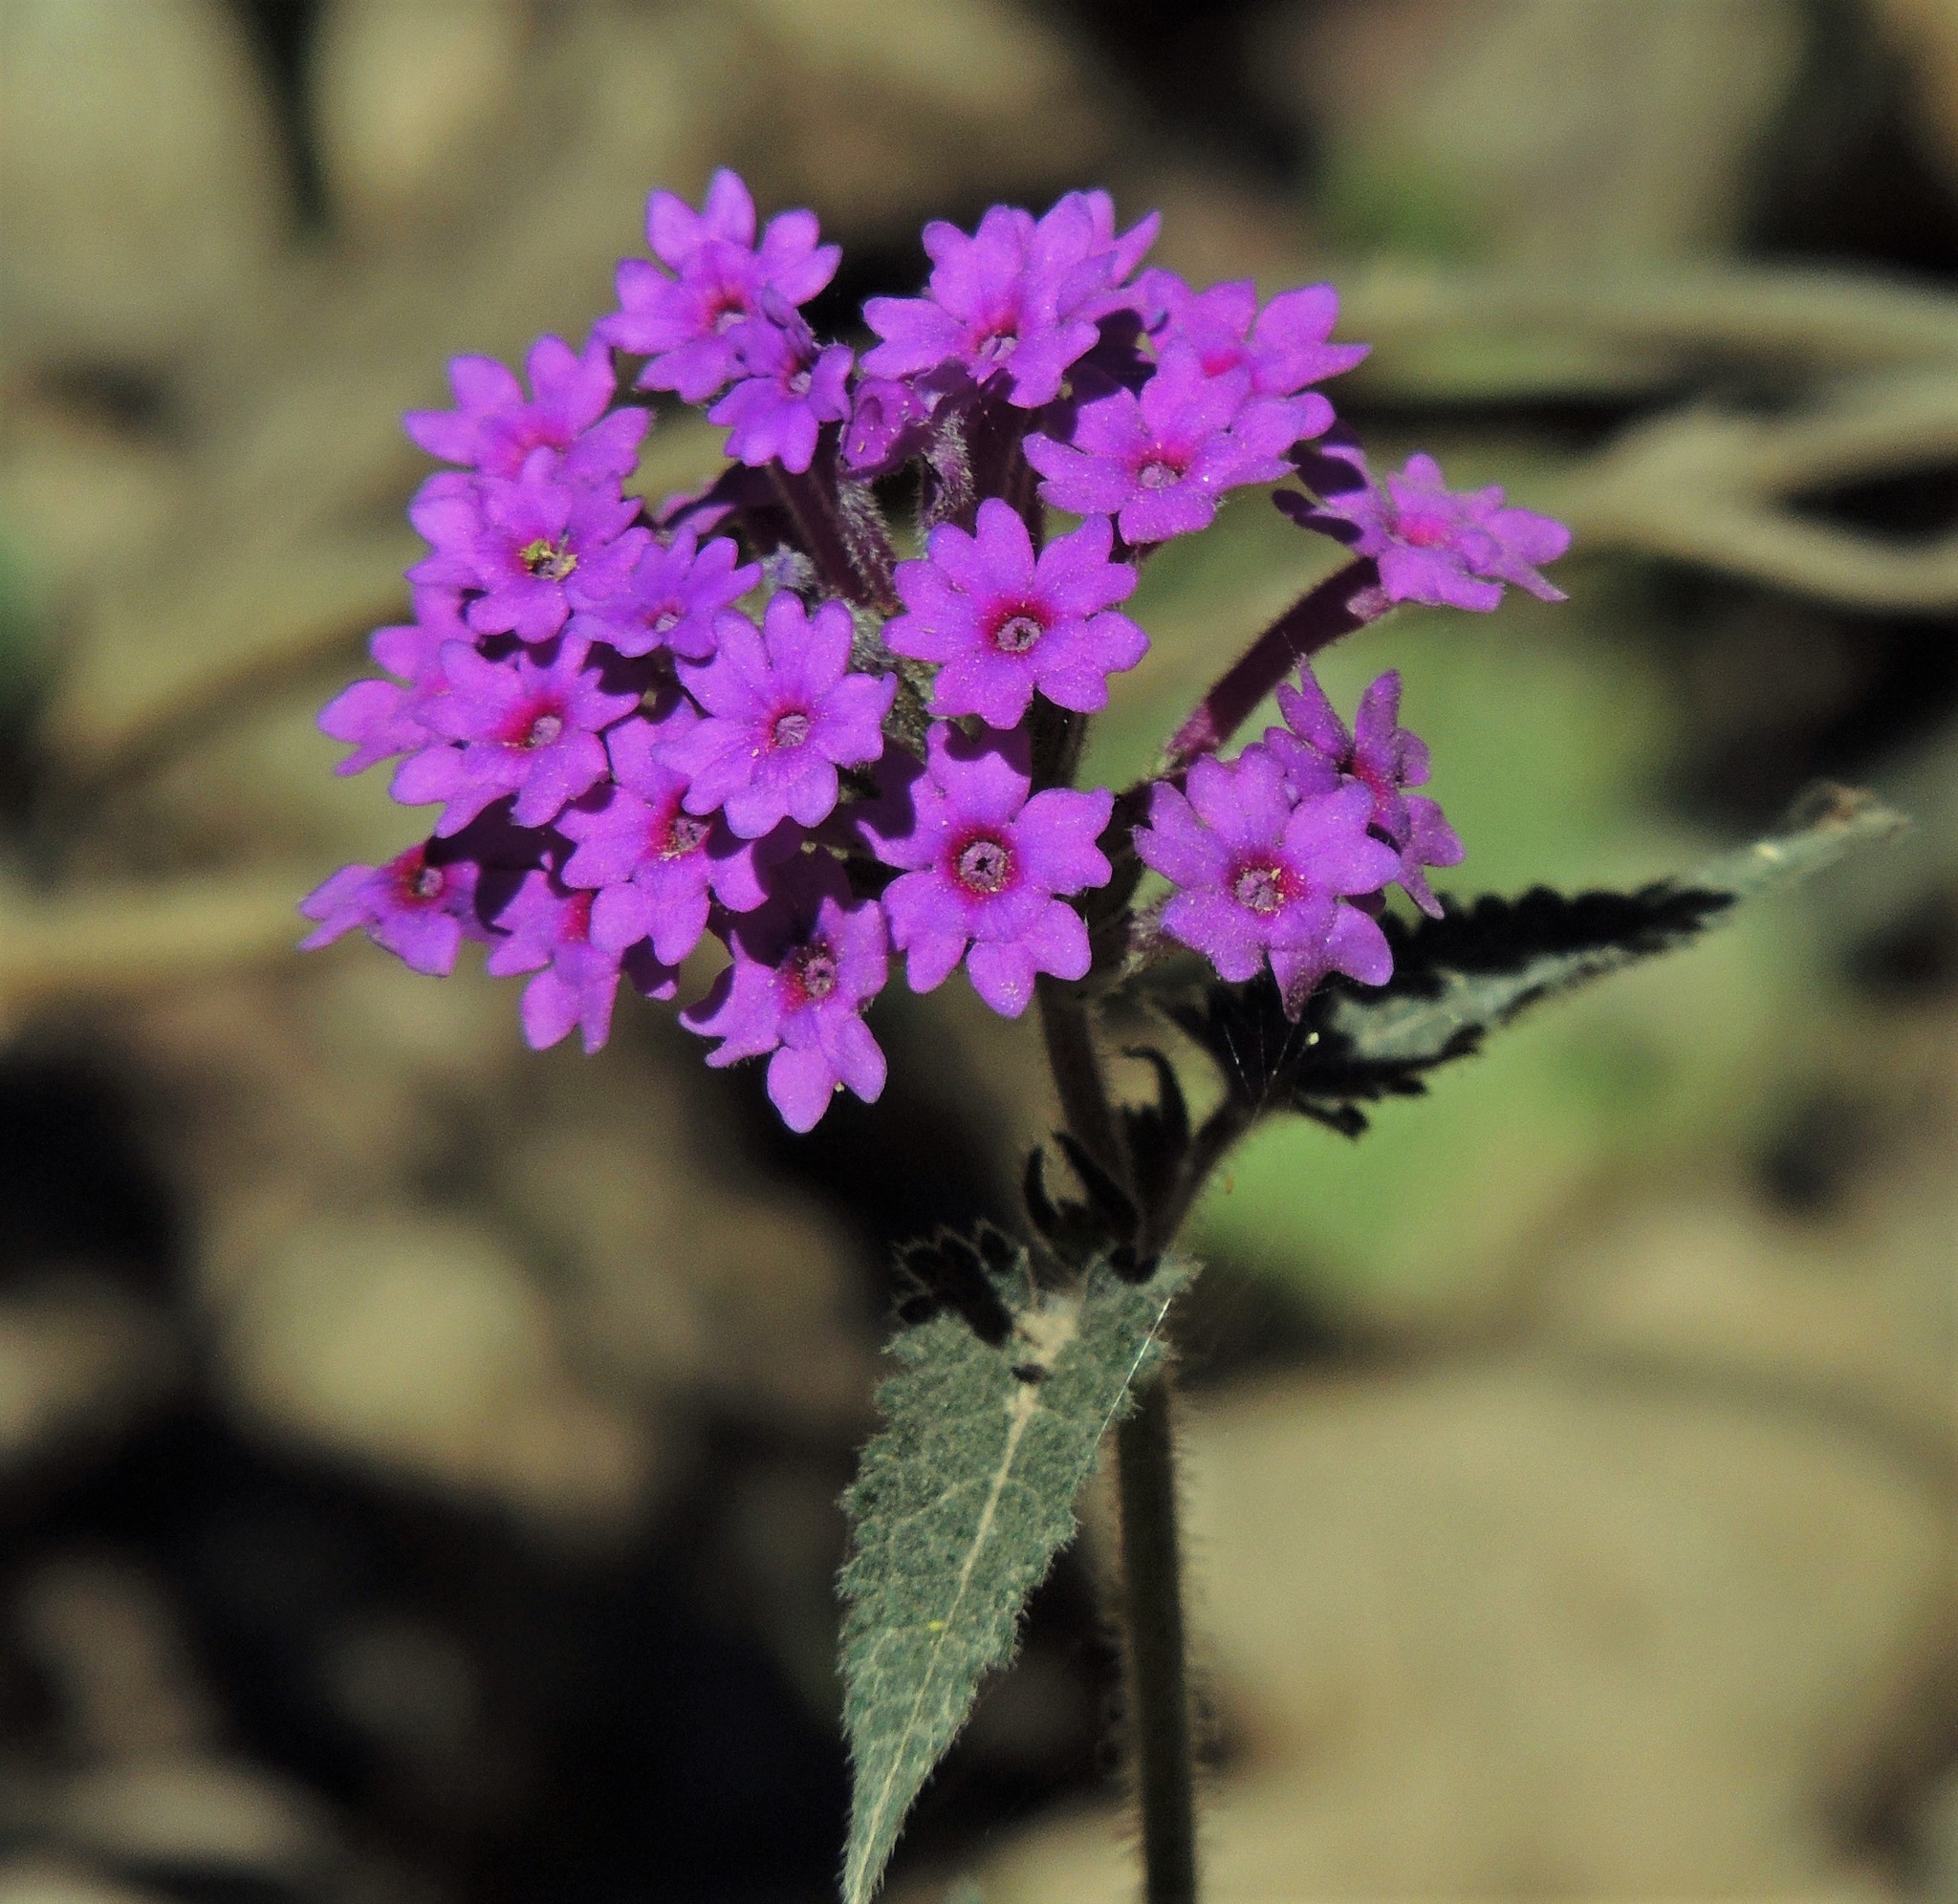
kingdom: Plantae
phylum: Tracheophyta
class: Magnoliopsida
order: Lamiales
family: Verbenaceae
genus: Verbena
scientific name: Verbena scrobiculata
